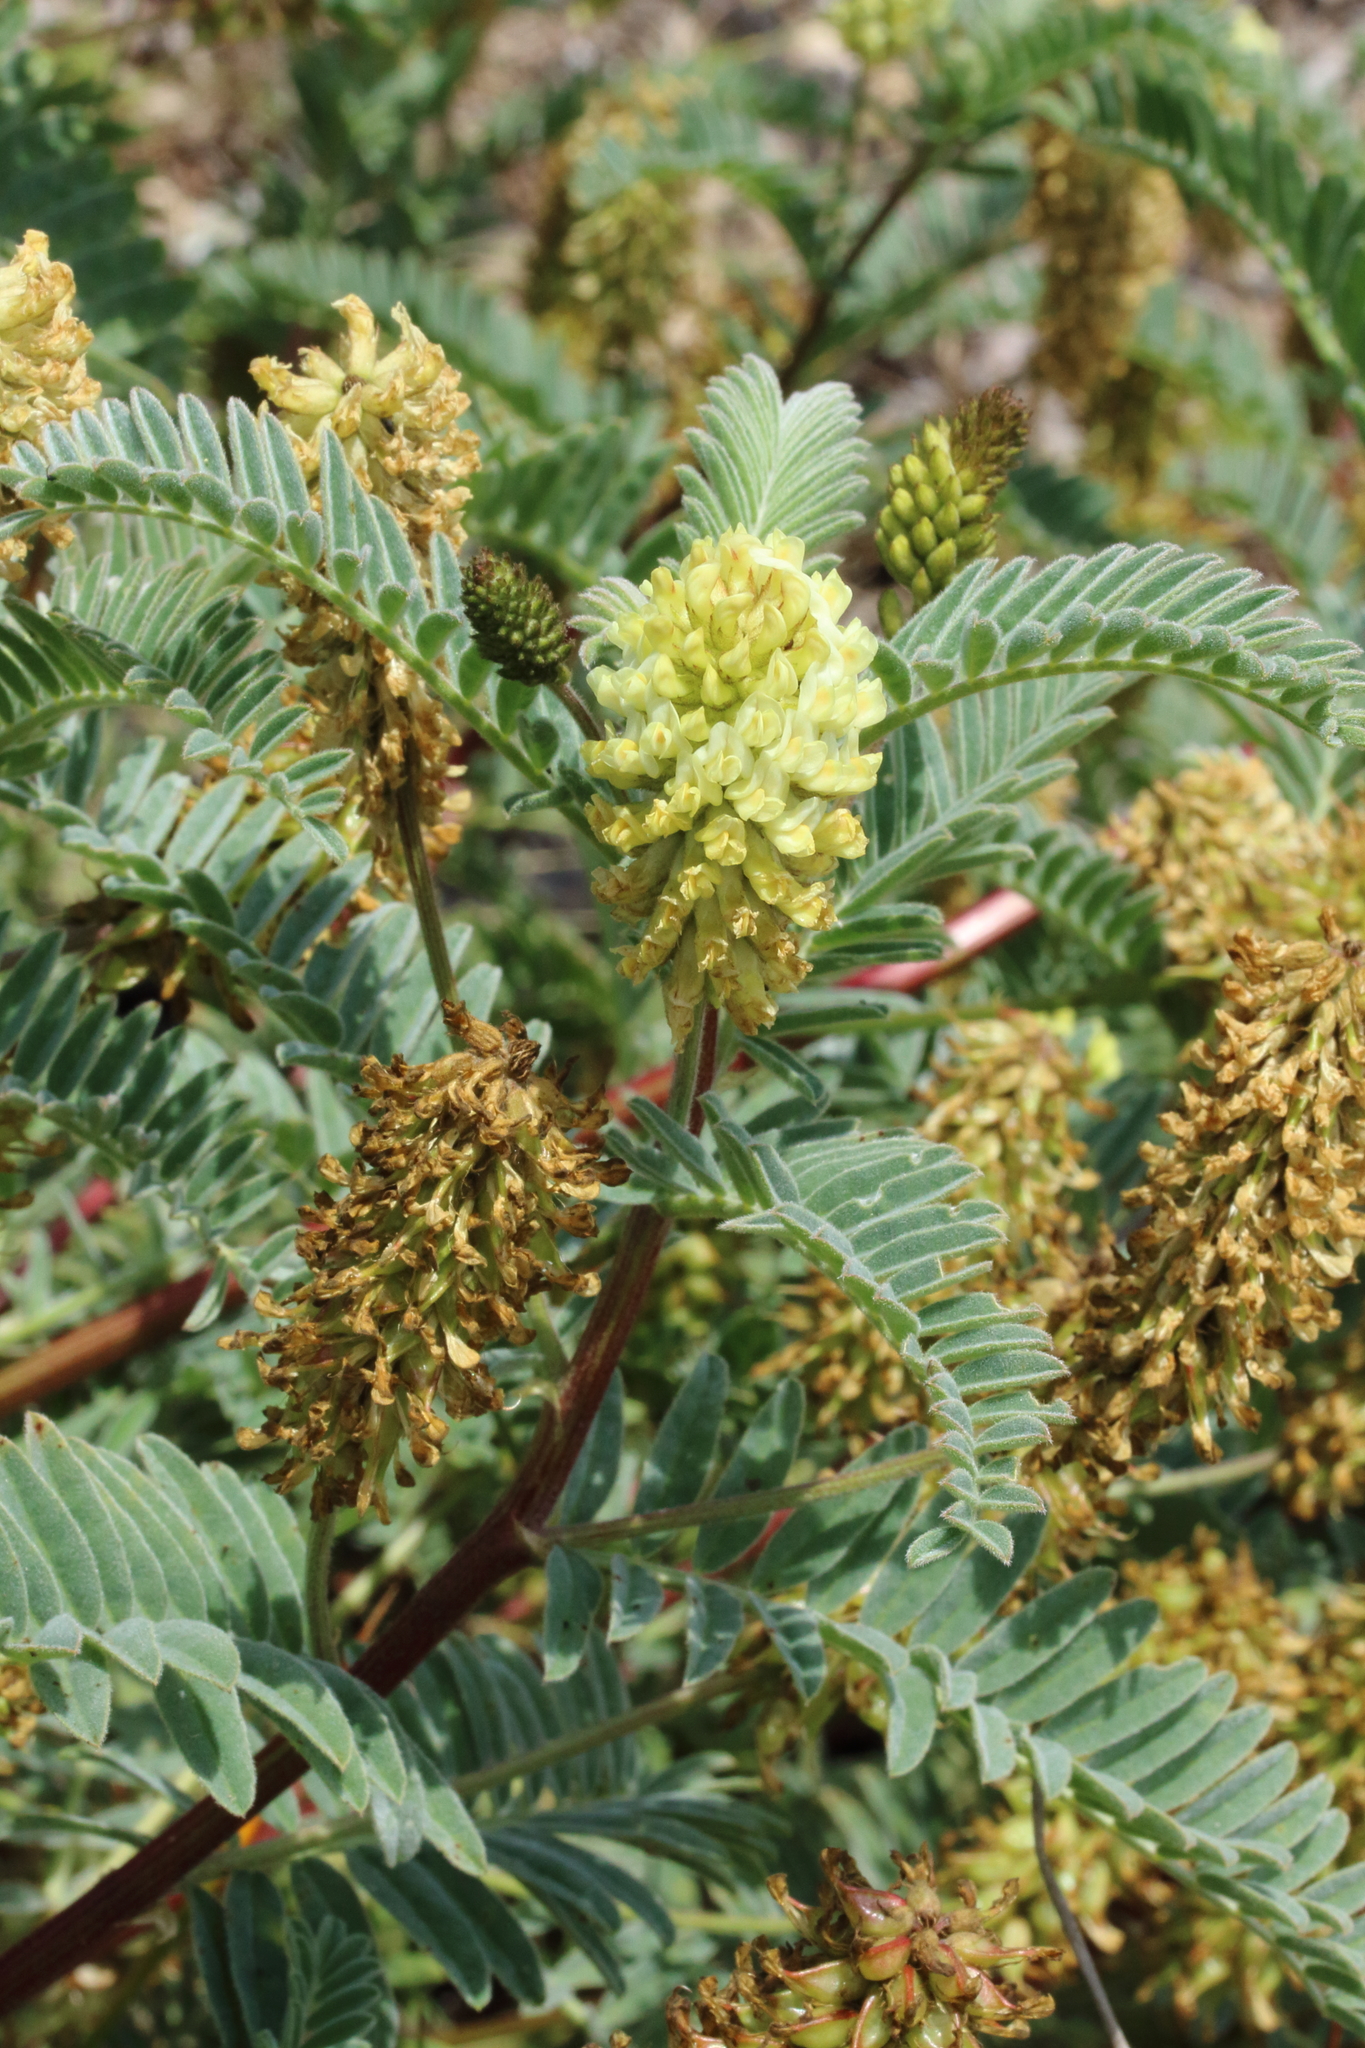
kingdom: Plantae
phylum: Tracheophyta
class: Magnoliopsida
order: Fabales
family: Fabaceae
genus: Astragalus
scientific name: Astragalus pycnostachyus
